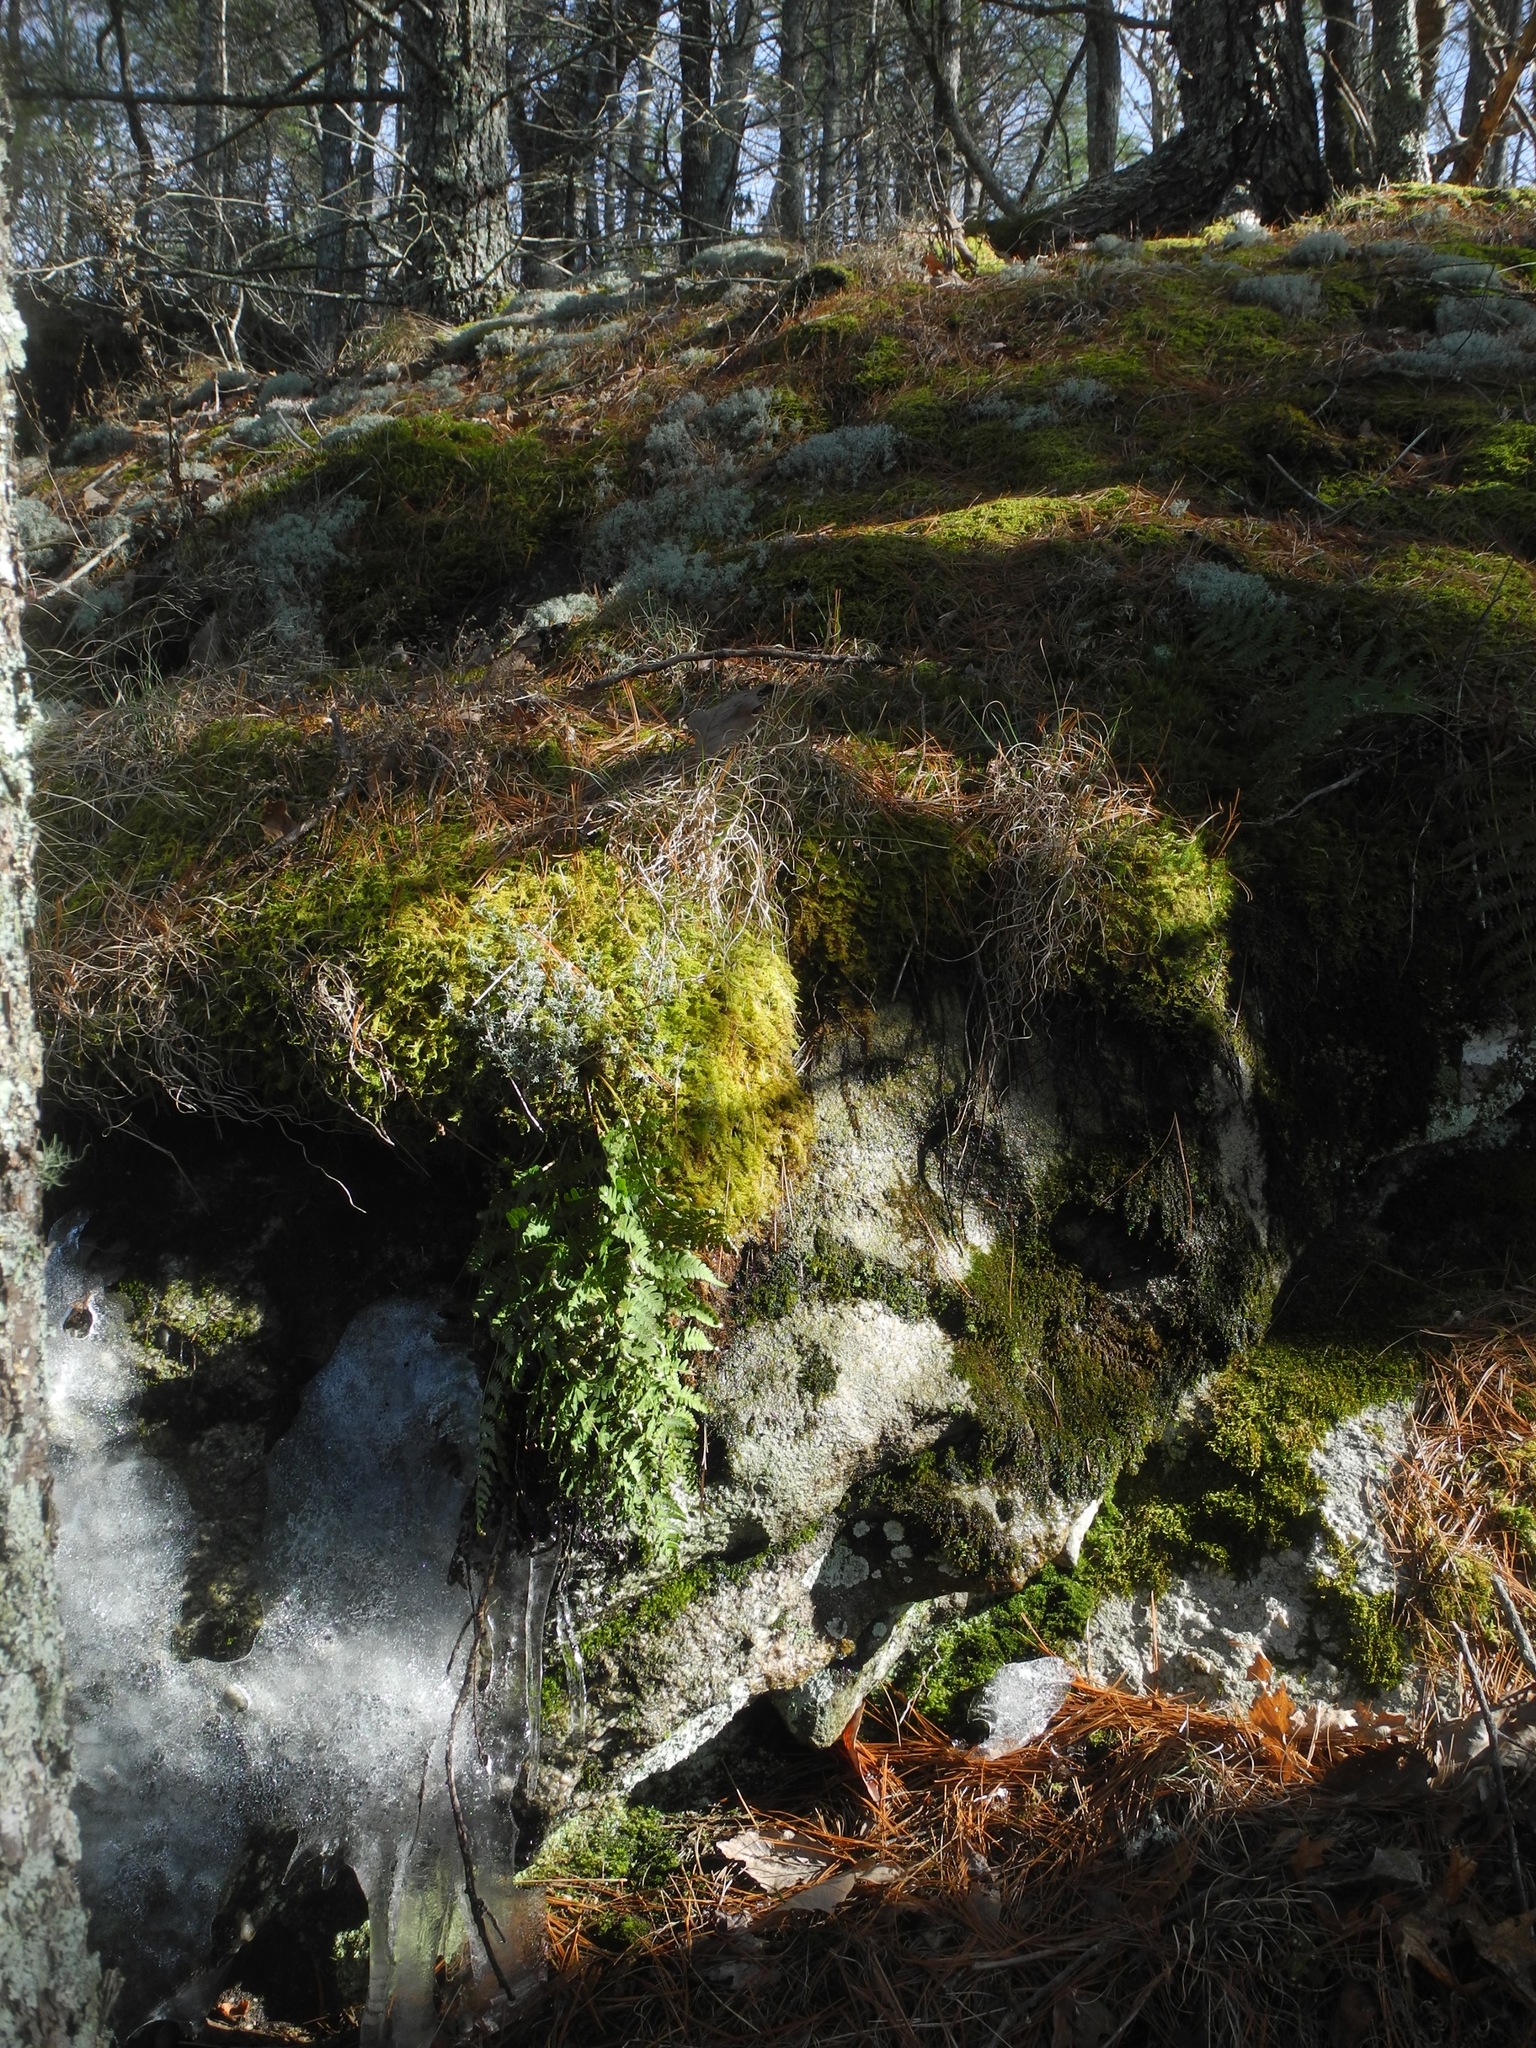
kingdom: Plantae
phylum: Tracheophyta
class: Polypodiopsida
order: Polypodiales
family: Dryopteridaceae
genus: Dryopteris
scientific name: Dryopteris marginalis
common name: Marginal wood fern
